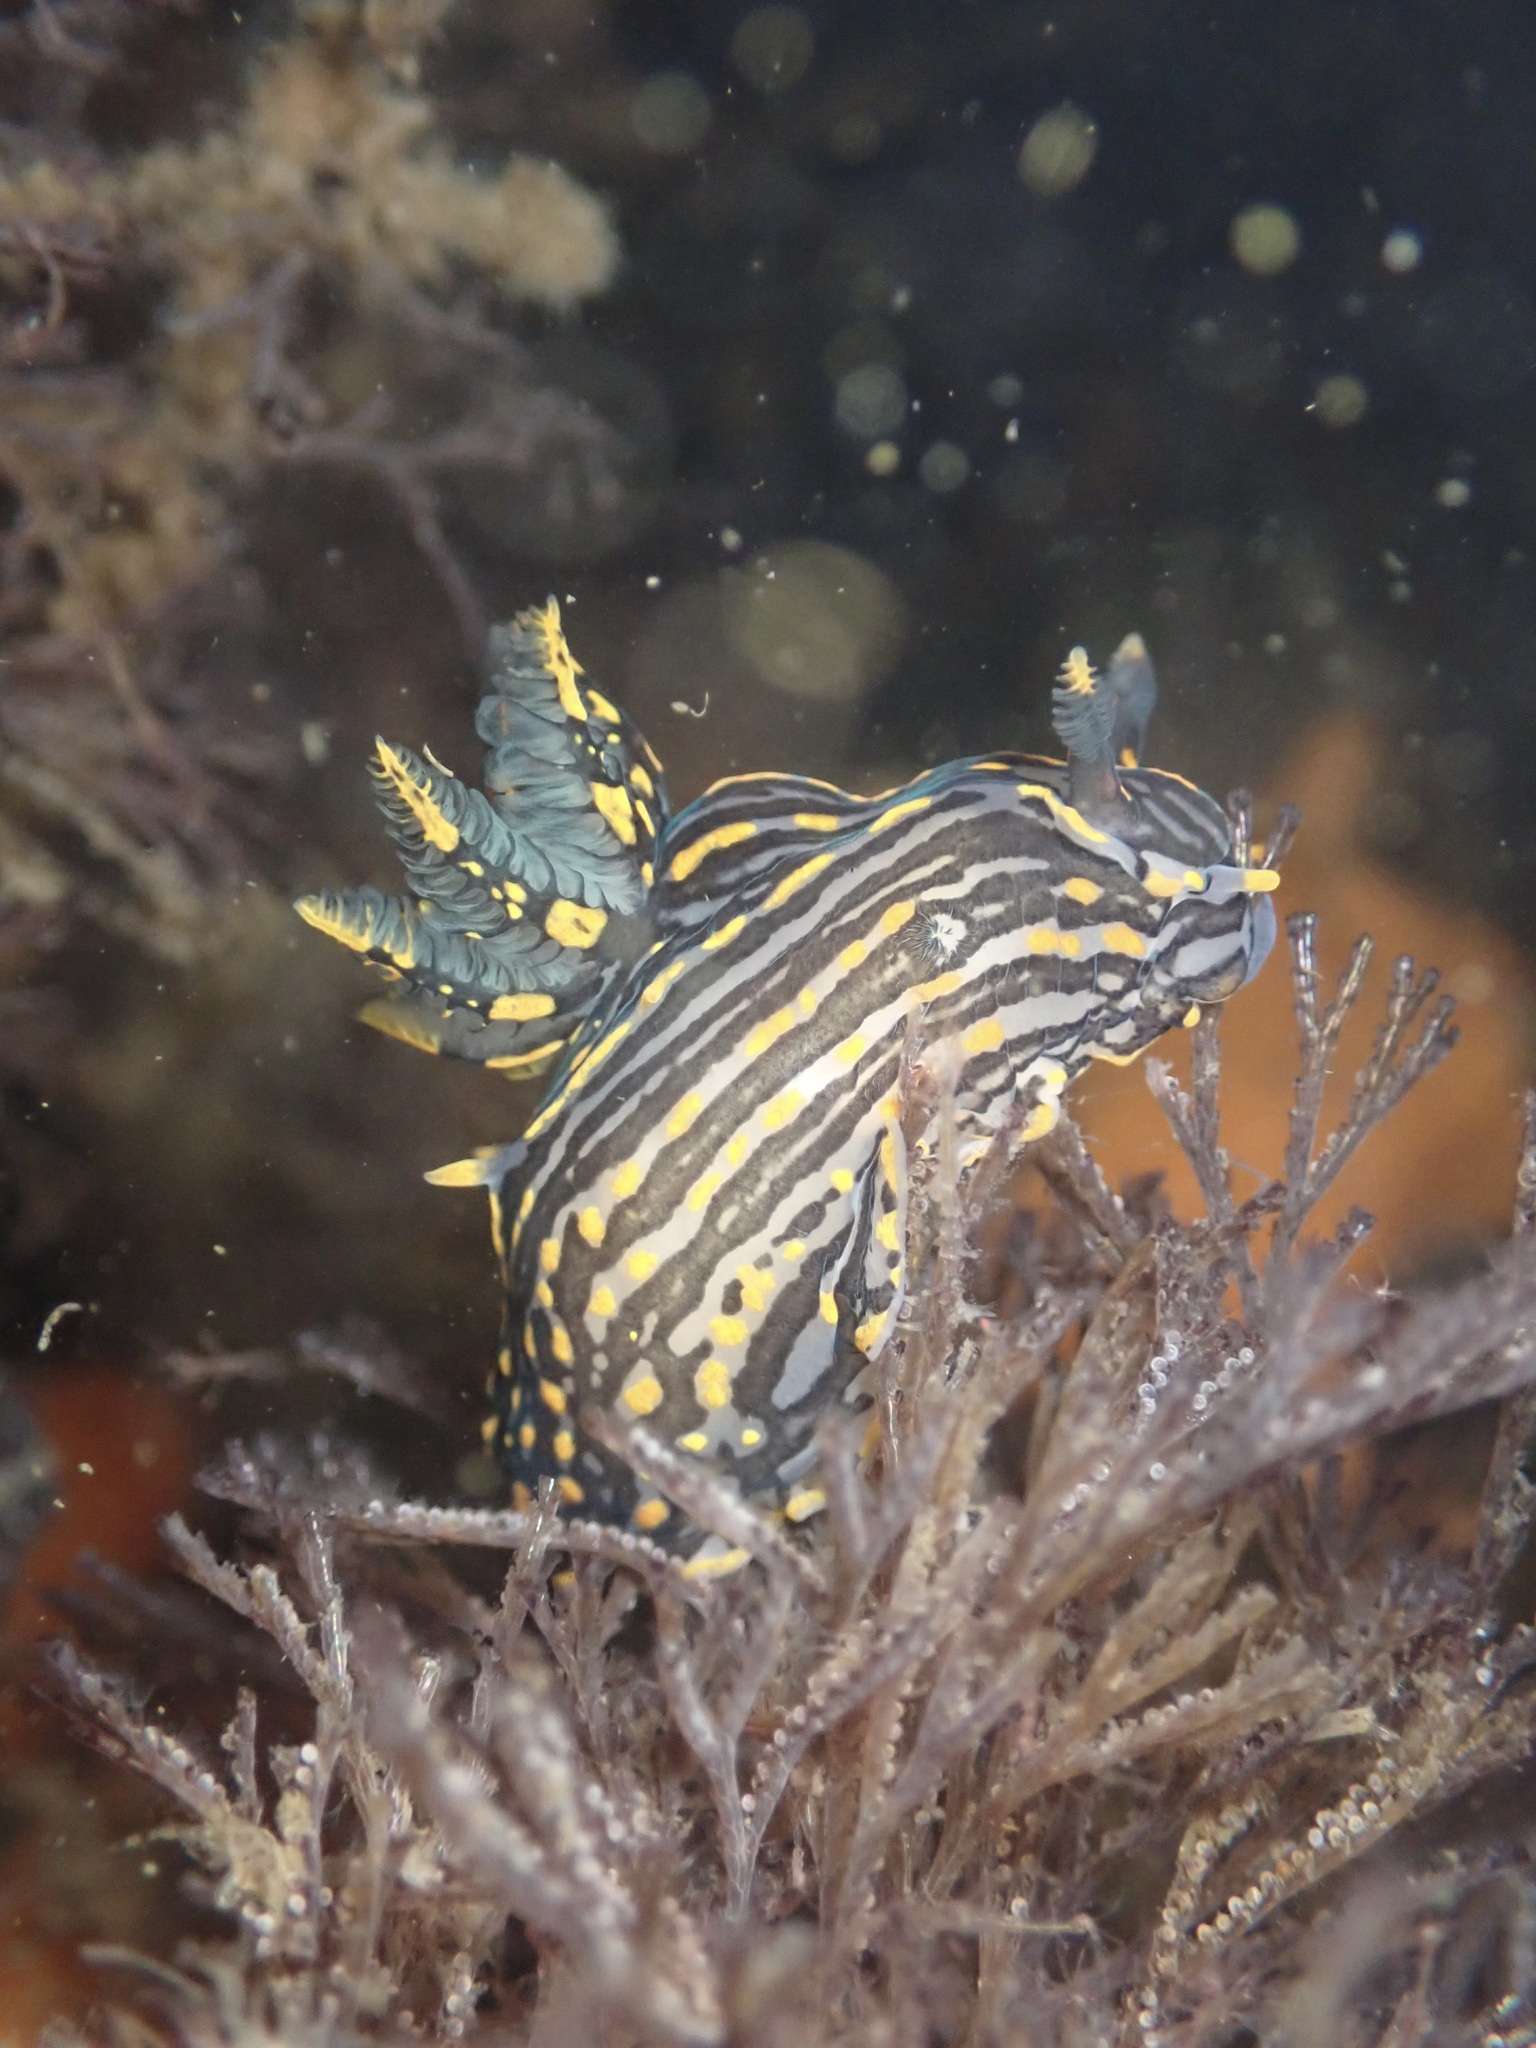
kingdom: Animalia
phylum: Mollusca
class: Gastropoda
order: Nudibranchia
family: Polyceridae
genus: Polycera
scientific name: Polycera atra
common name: Orange-spike polycera
